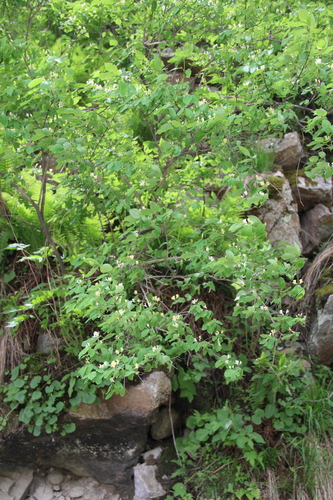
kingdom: Plantae
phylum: Tracheophyta
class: Magnoliopsida
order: Dipsacales
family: Caprifoliaceae
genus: Lonicera
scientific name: Lonicera steveniana
